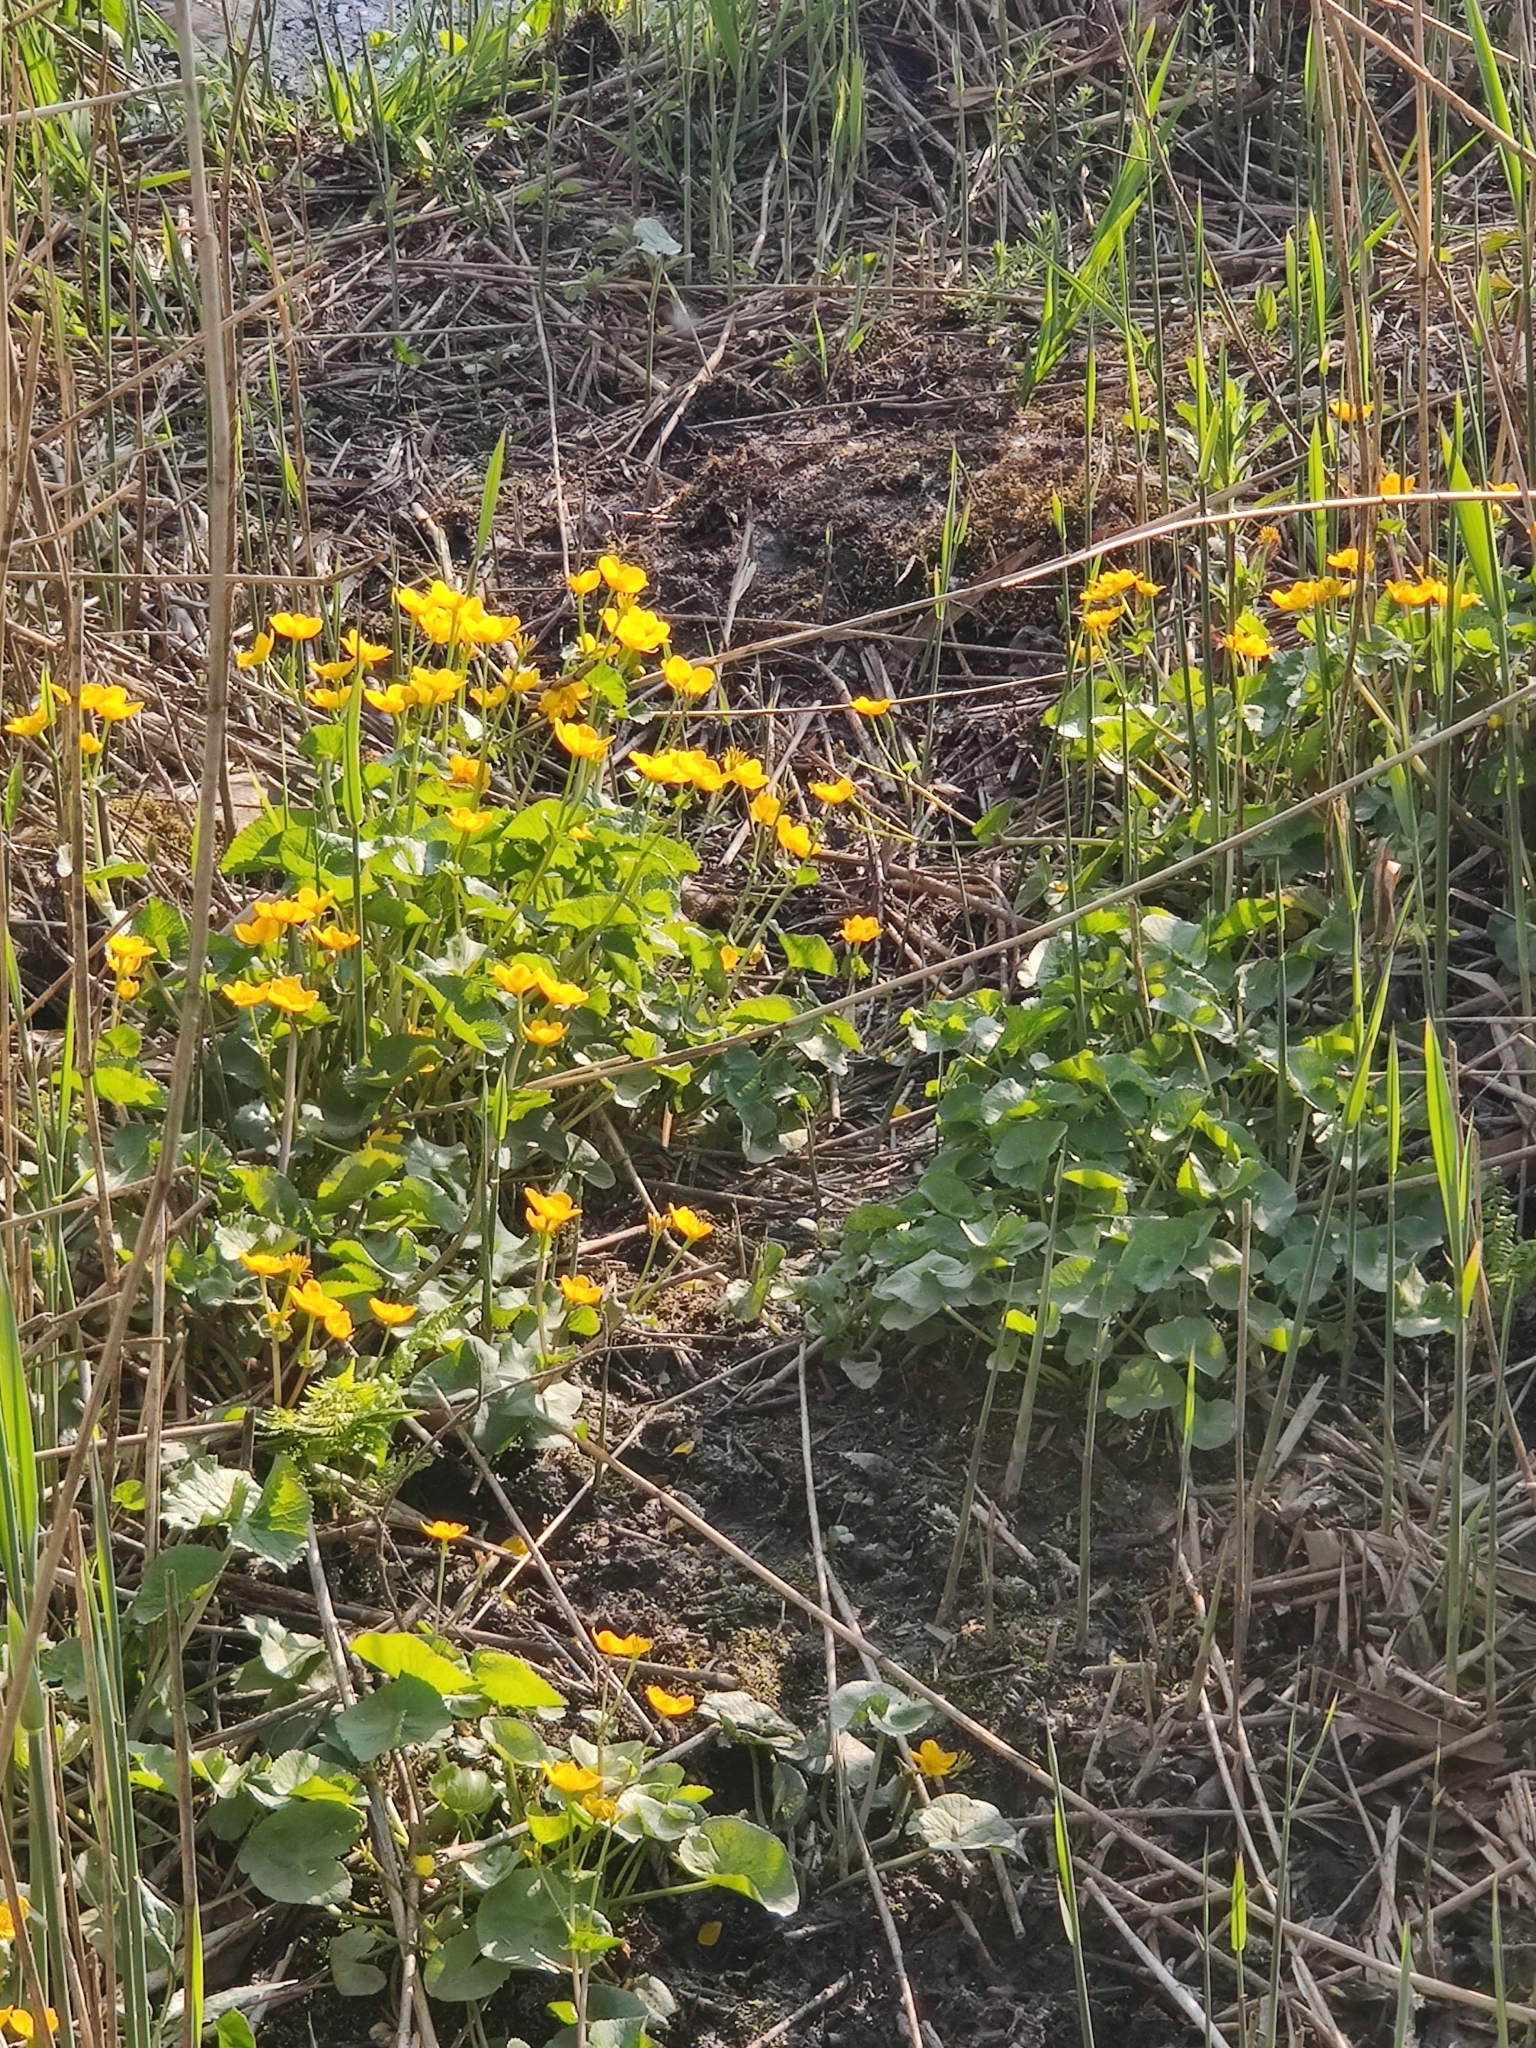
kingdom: Plantae
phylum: Tracheophyta
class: Magnoliopsida
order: Ranunculales
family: Ranunculaceae
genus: Caltha
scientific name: Caltha palustris
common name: Marsh marigold
